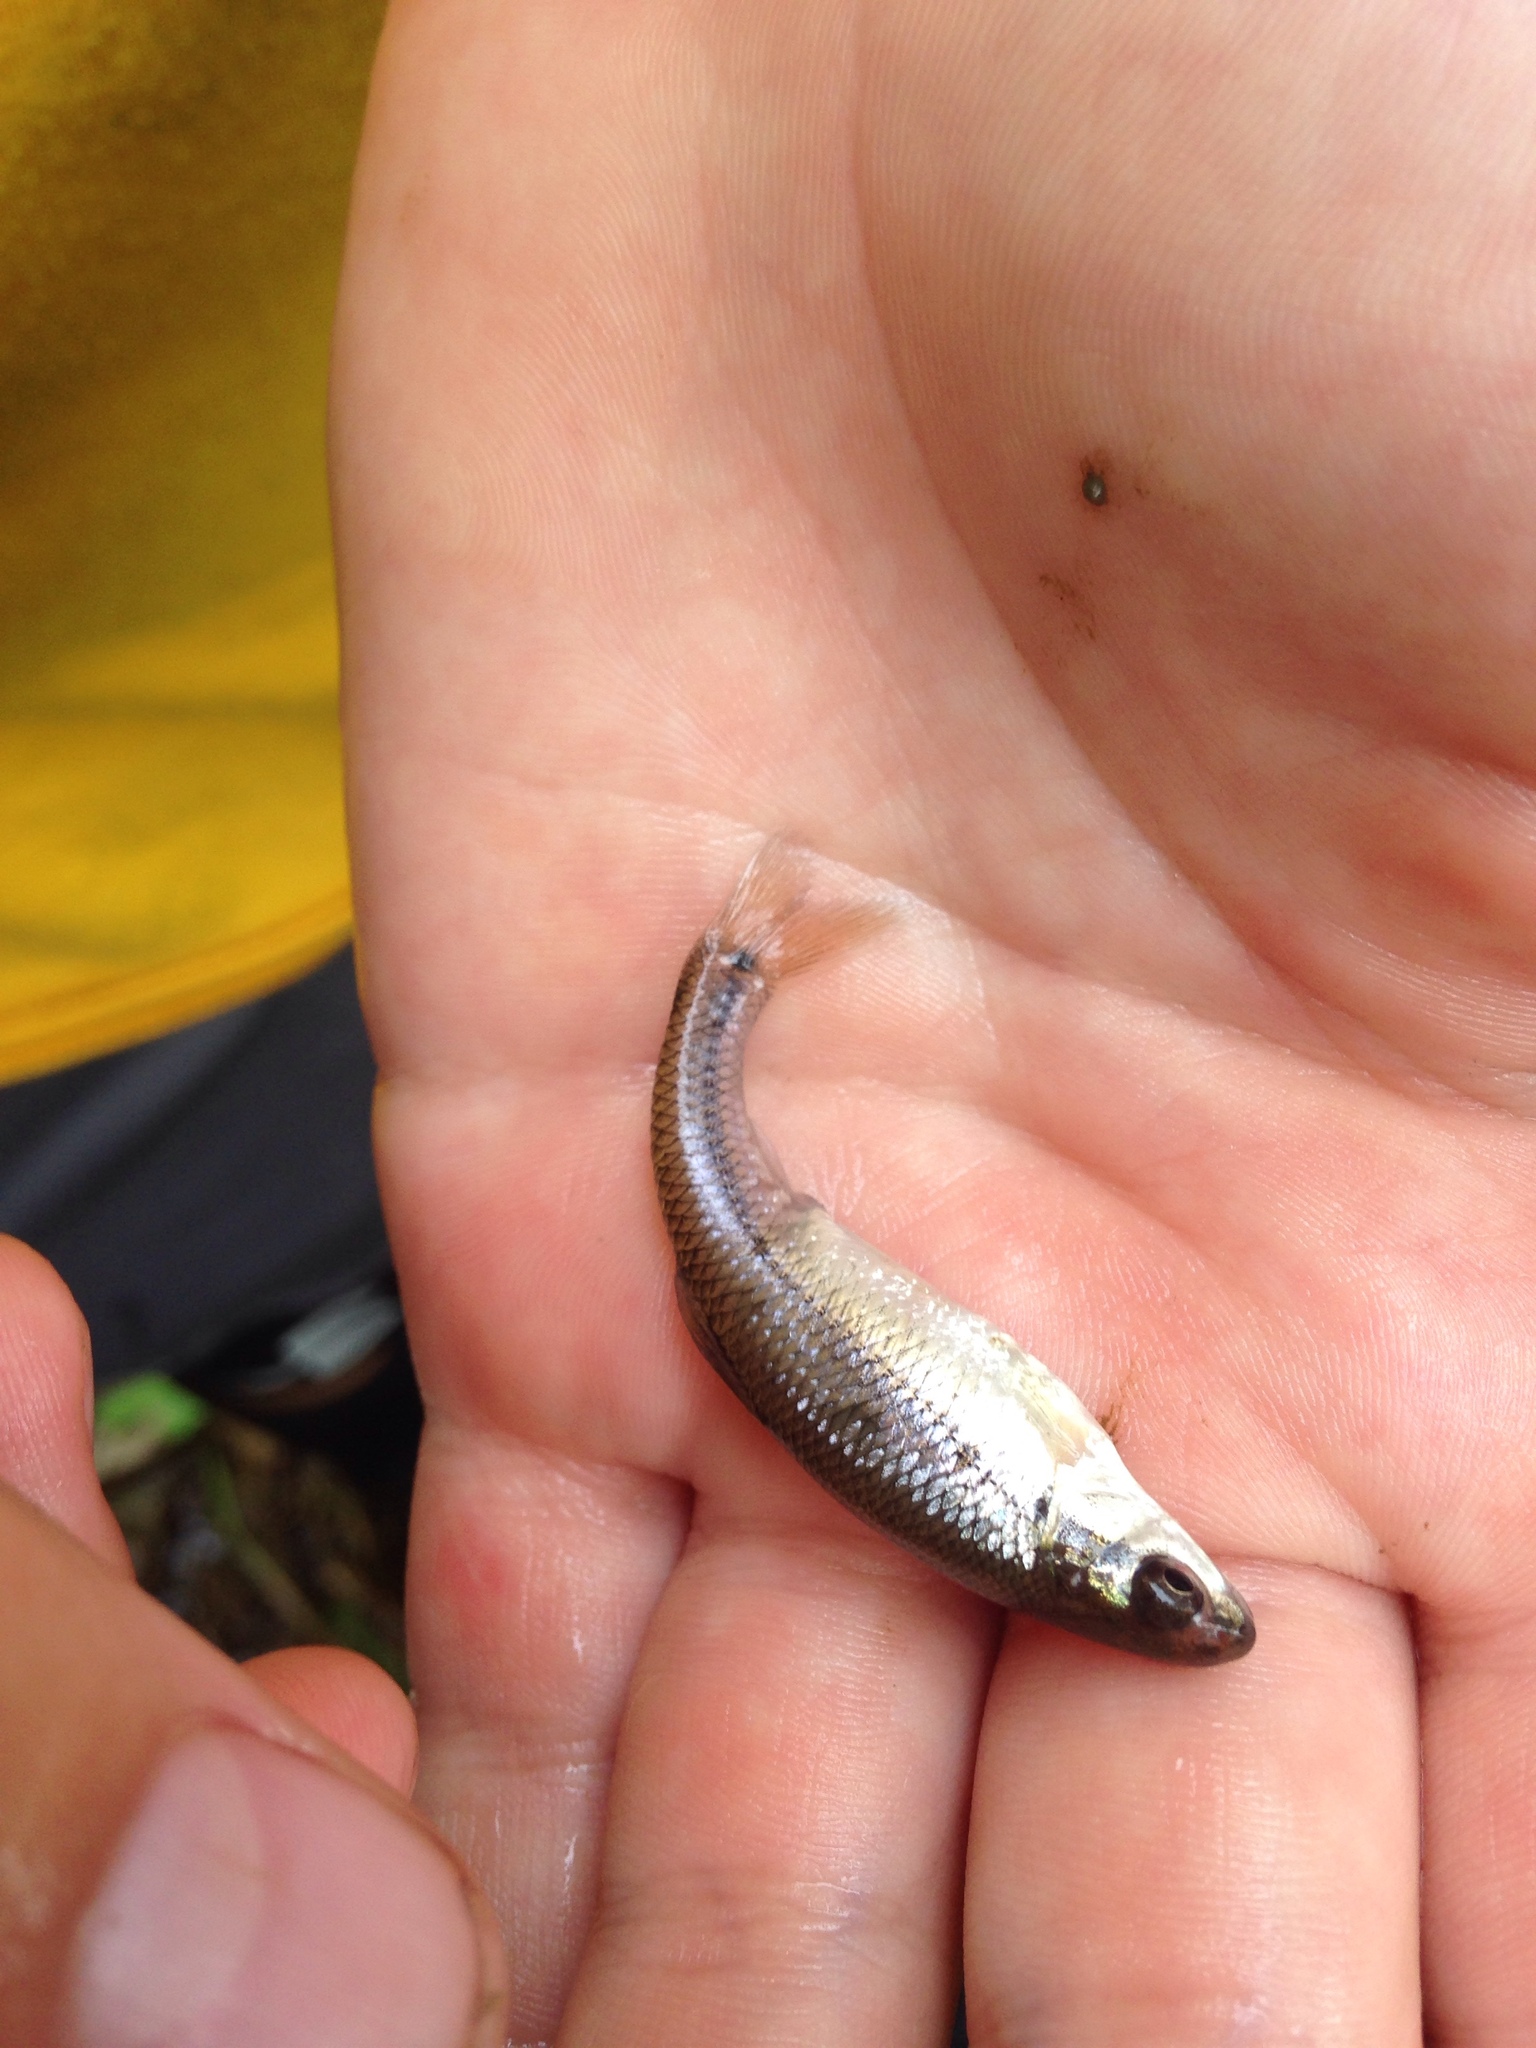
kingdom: Animalia
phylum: Chordata
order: Cypriniformes
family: Cyprinidae
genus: Pimephales
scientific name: Pimephales notatus
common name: Bluntnose minnow
